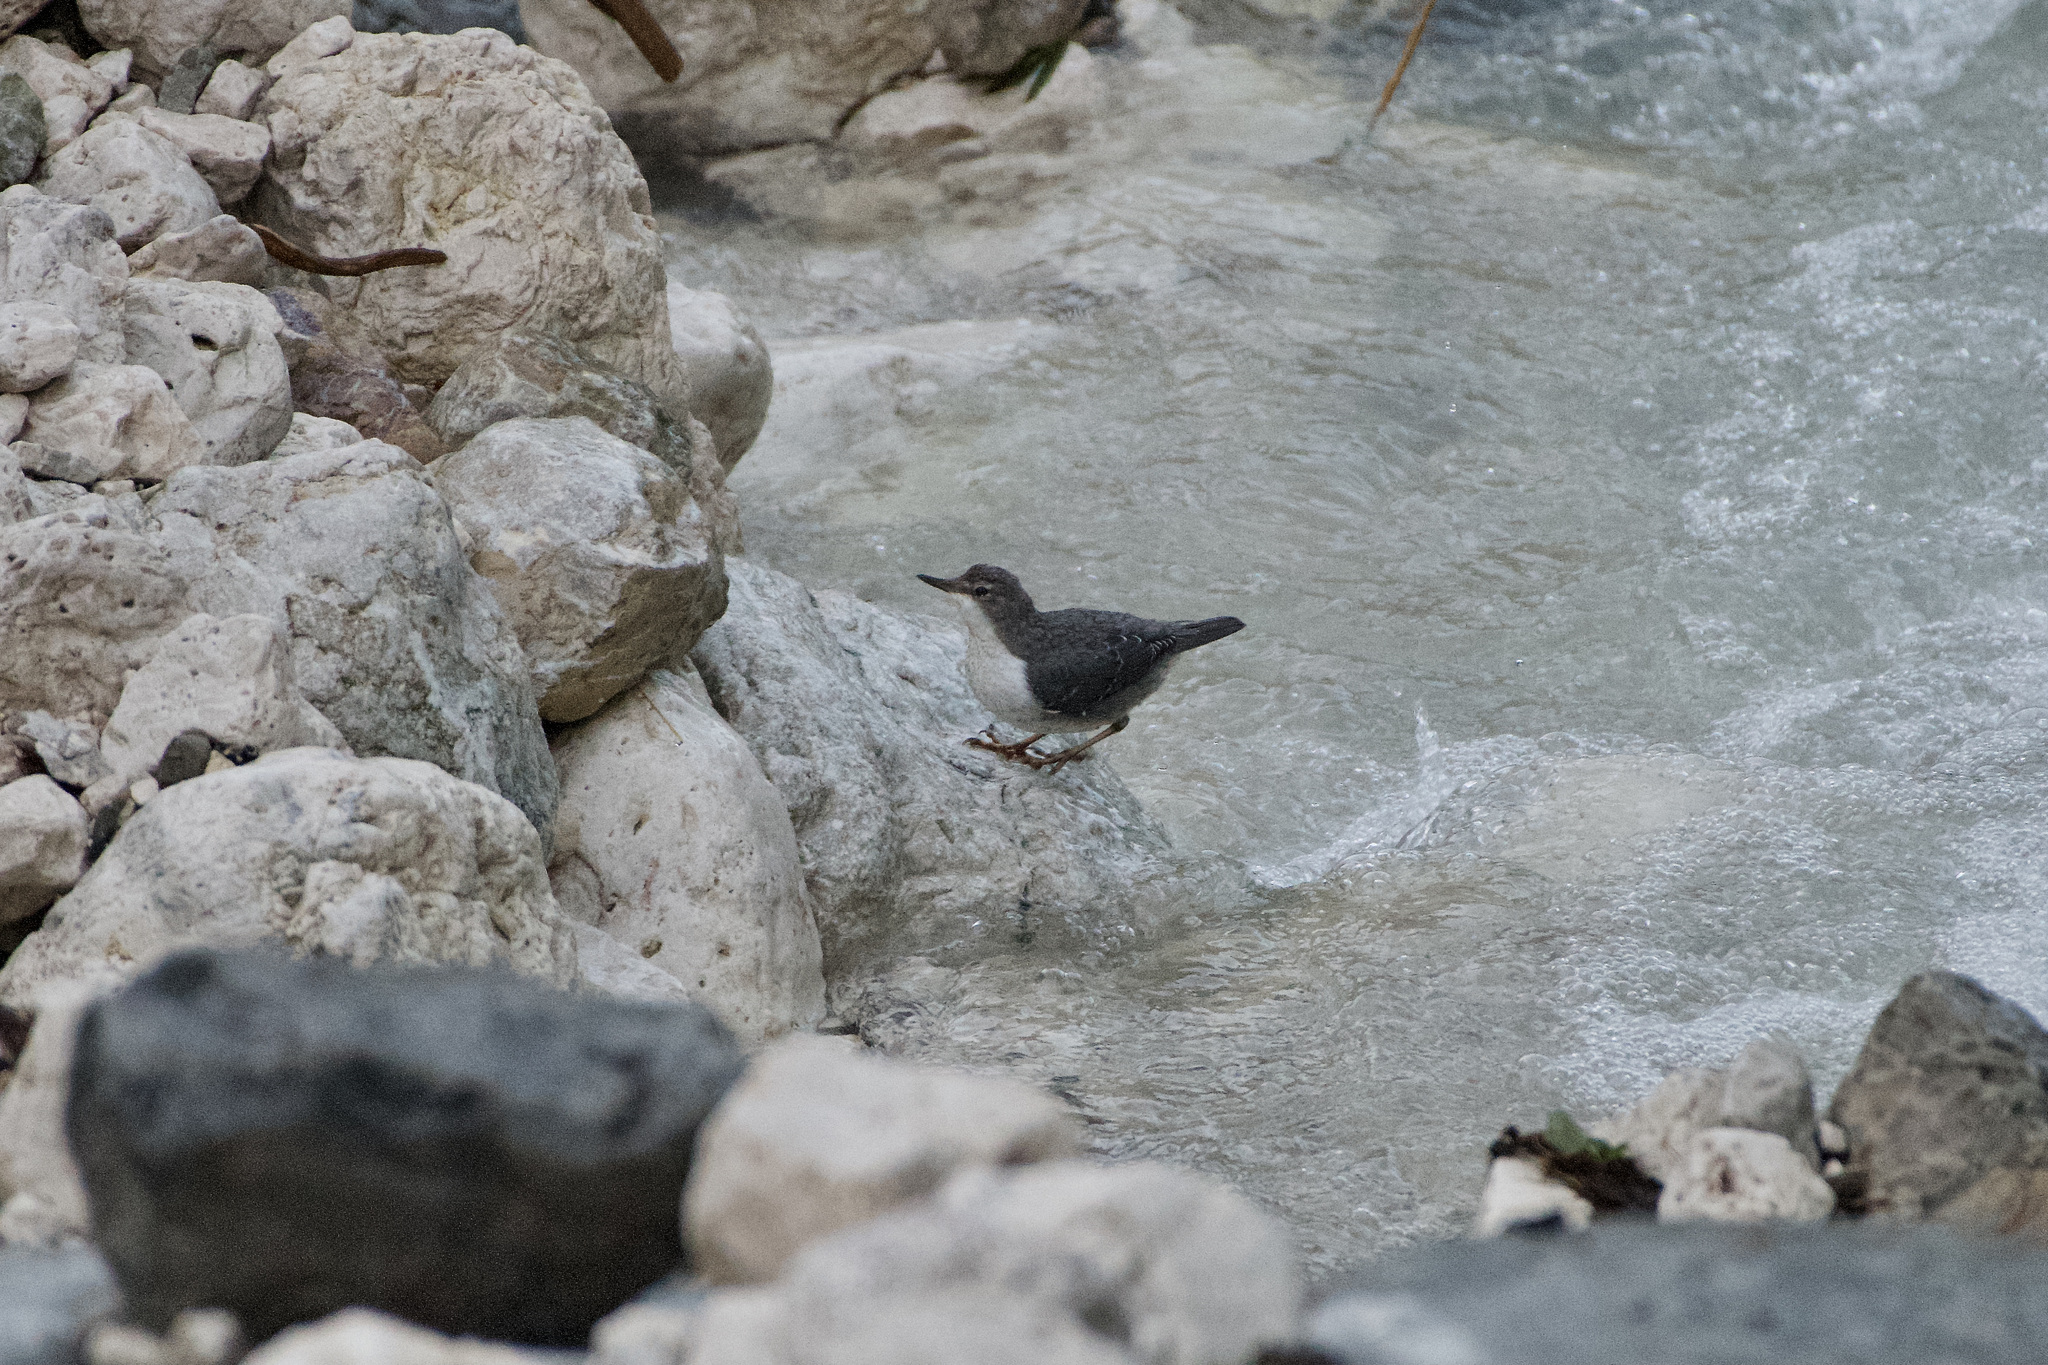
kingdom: Animalia
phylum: Chordata
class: Aves
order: Passeriformes
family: Cinclidae
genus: Cinclus
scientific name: Cinclus cinclus
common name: White-throated dipper
